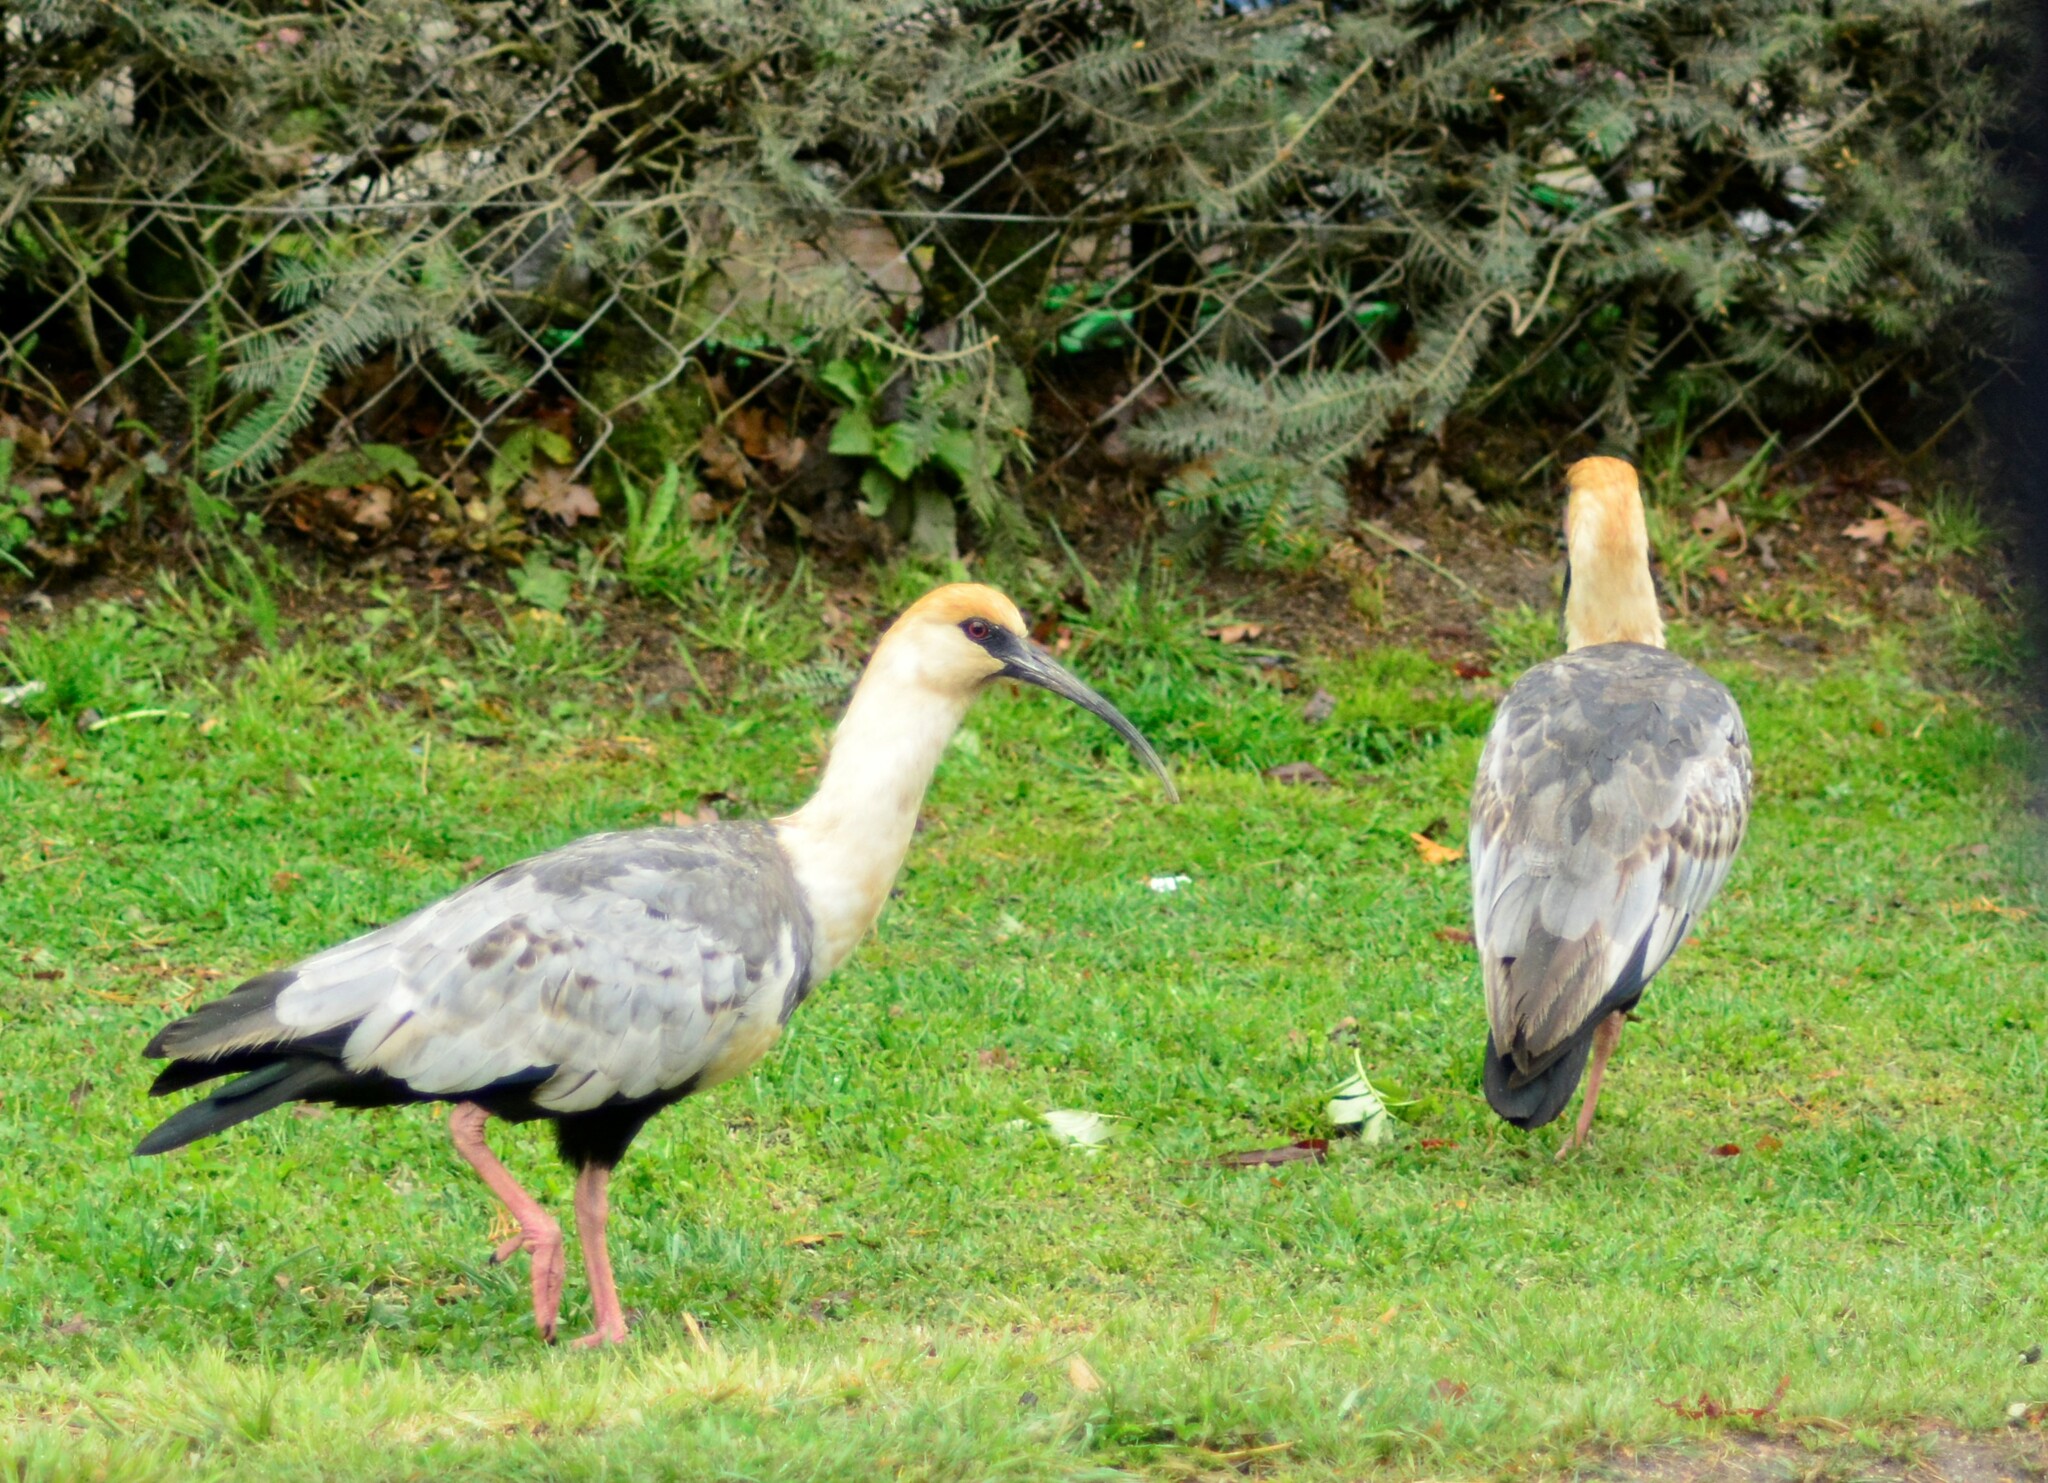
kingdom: Animalia
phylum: Chordata
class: Aves
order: Pelecaniformes
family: Threskiornithidae
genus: Theristicus
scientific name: Theristicus melanopis
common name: Black-faced ibis
